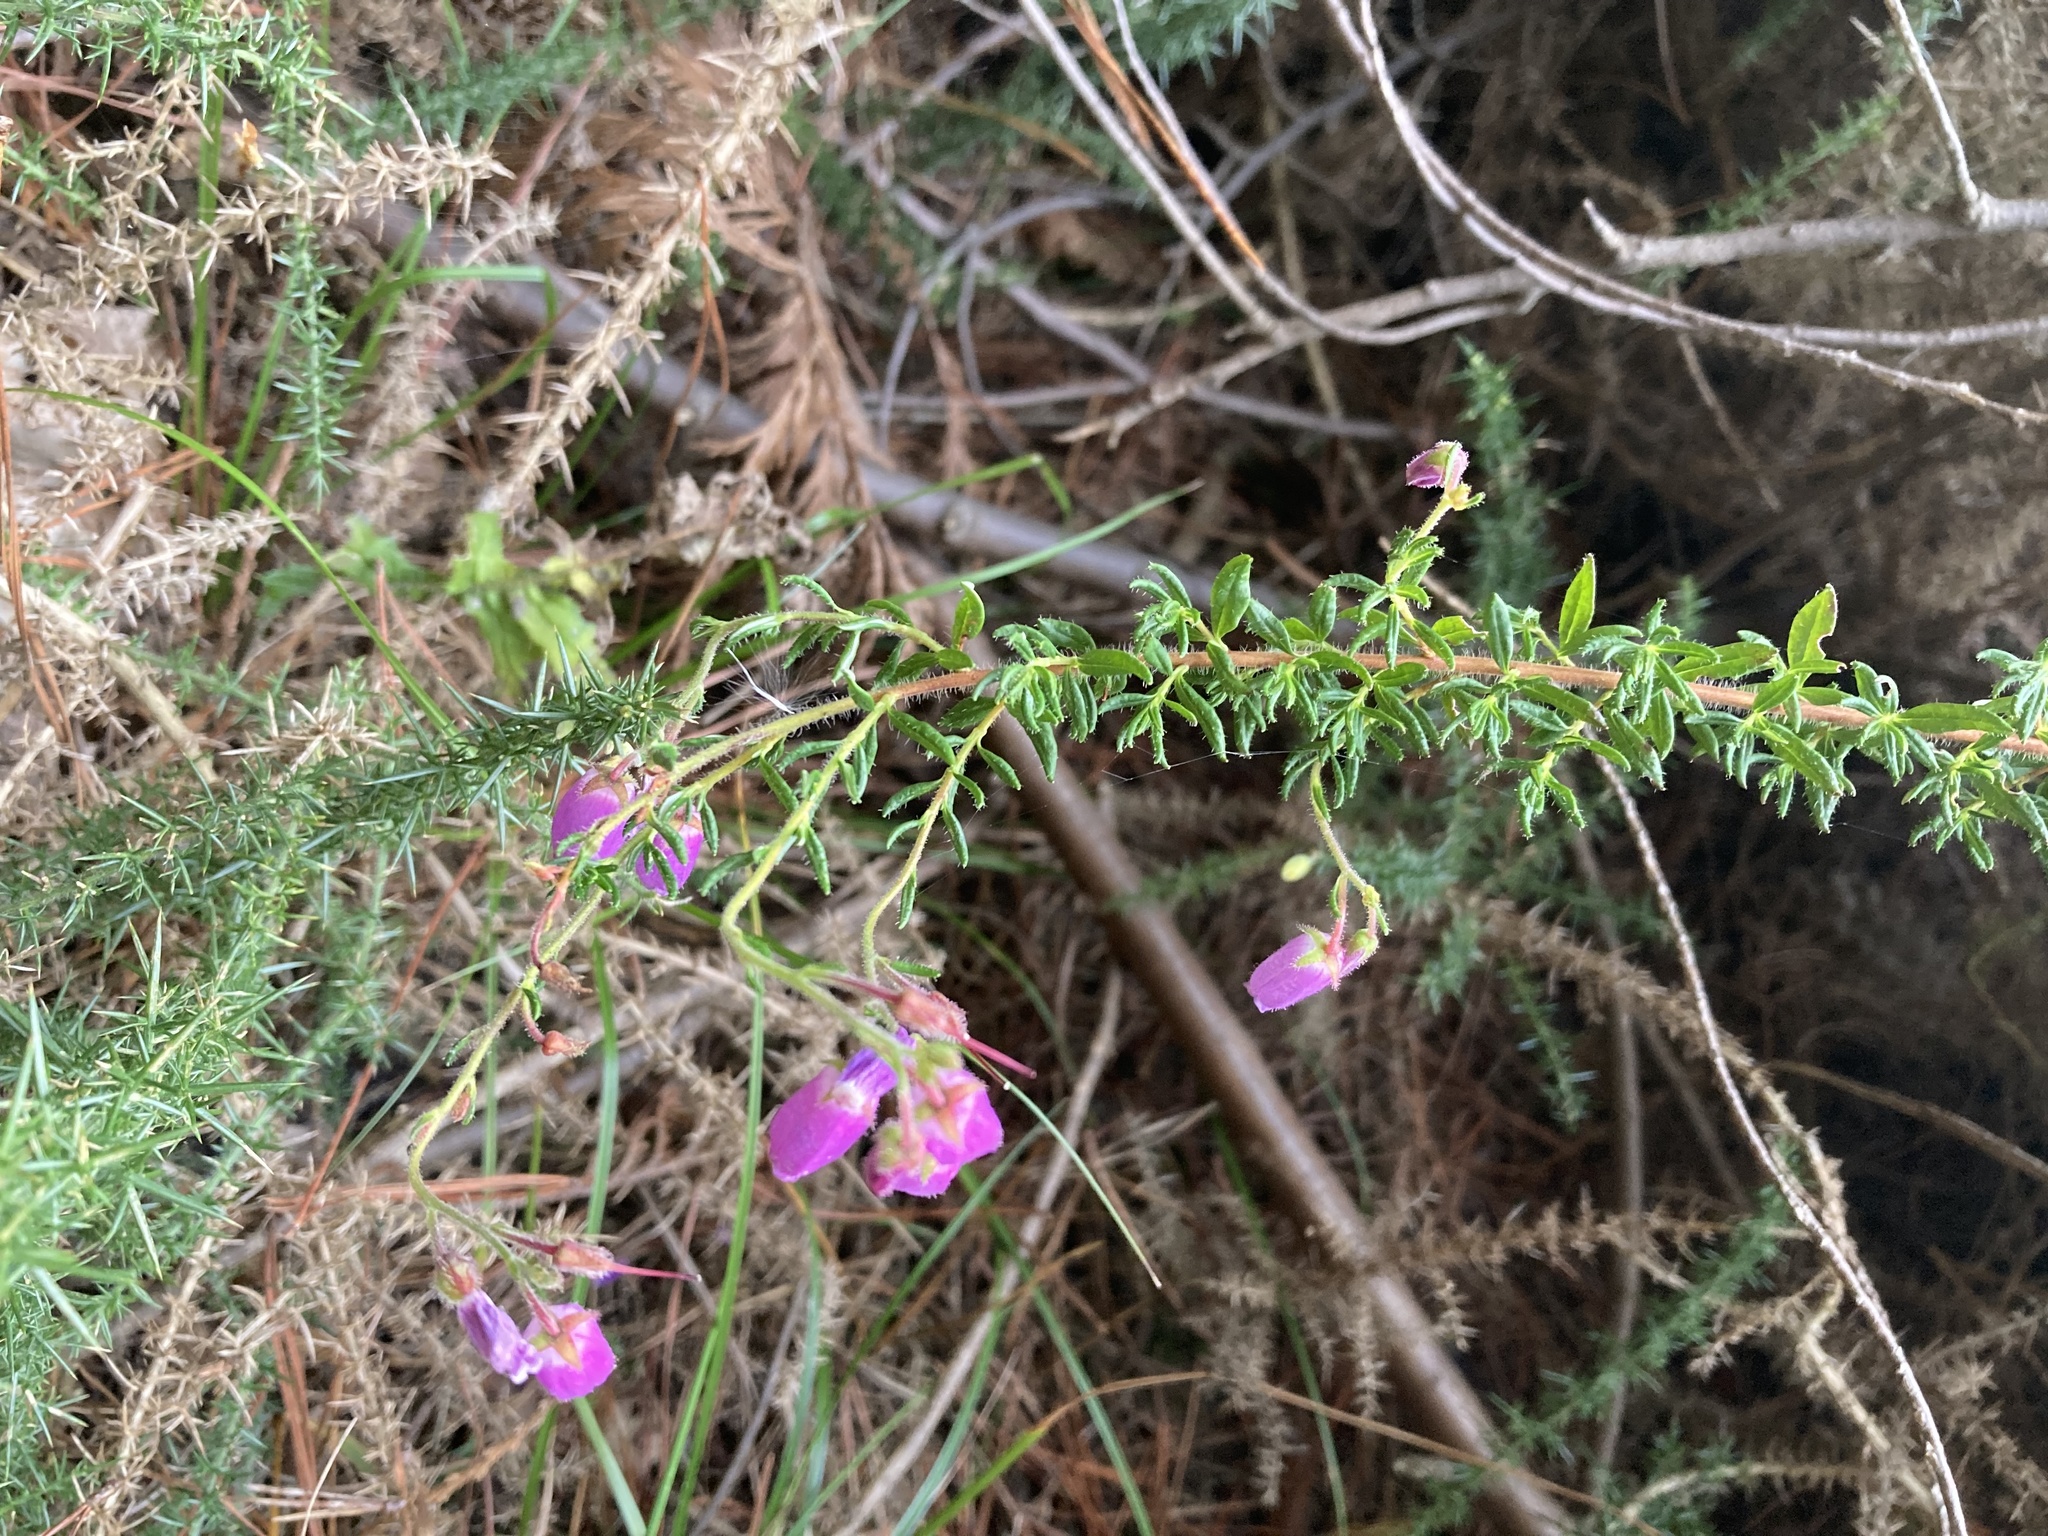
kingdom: Plantae
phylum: Tracheophyta
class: Magnoliopsida
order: Ericales
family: Ericaceae
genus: Daboecia
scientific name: Daboecia cantabrica
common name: St. dabeoc's-heath
